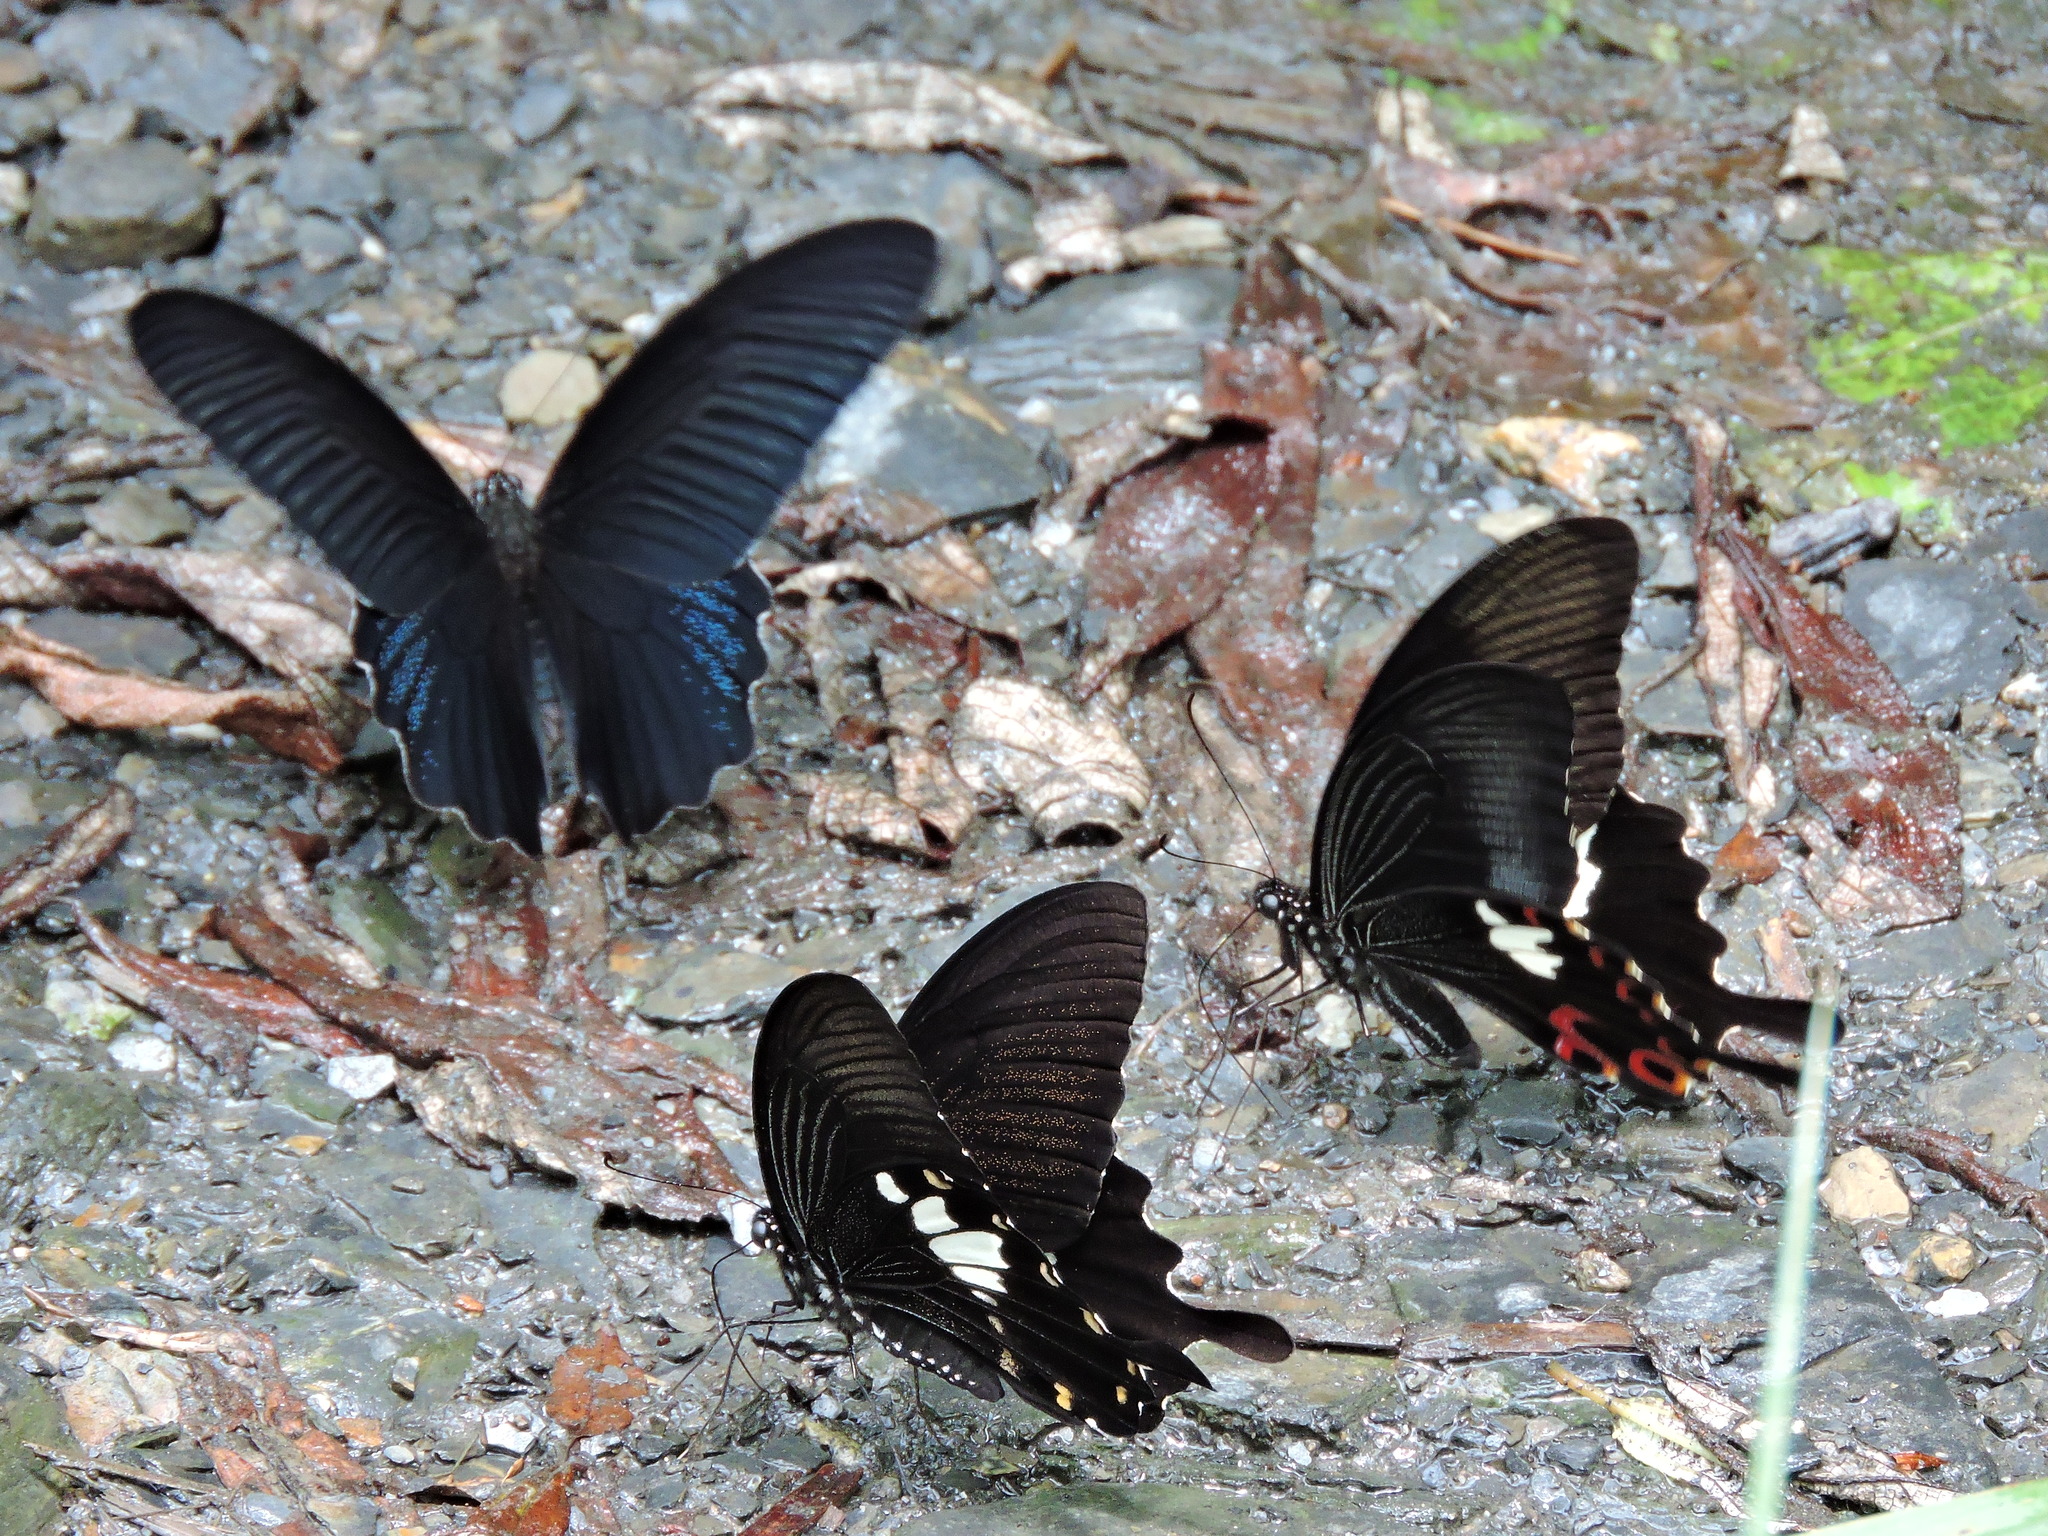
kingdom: Animalia
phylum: Arthropoda
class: Insecta
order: Lepidoptera
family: Papilionidae
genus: Papilio
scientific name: Papilio helenus
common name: Red helen
